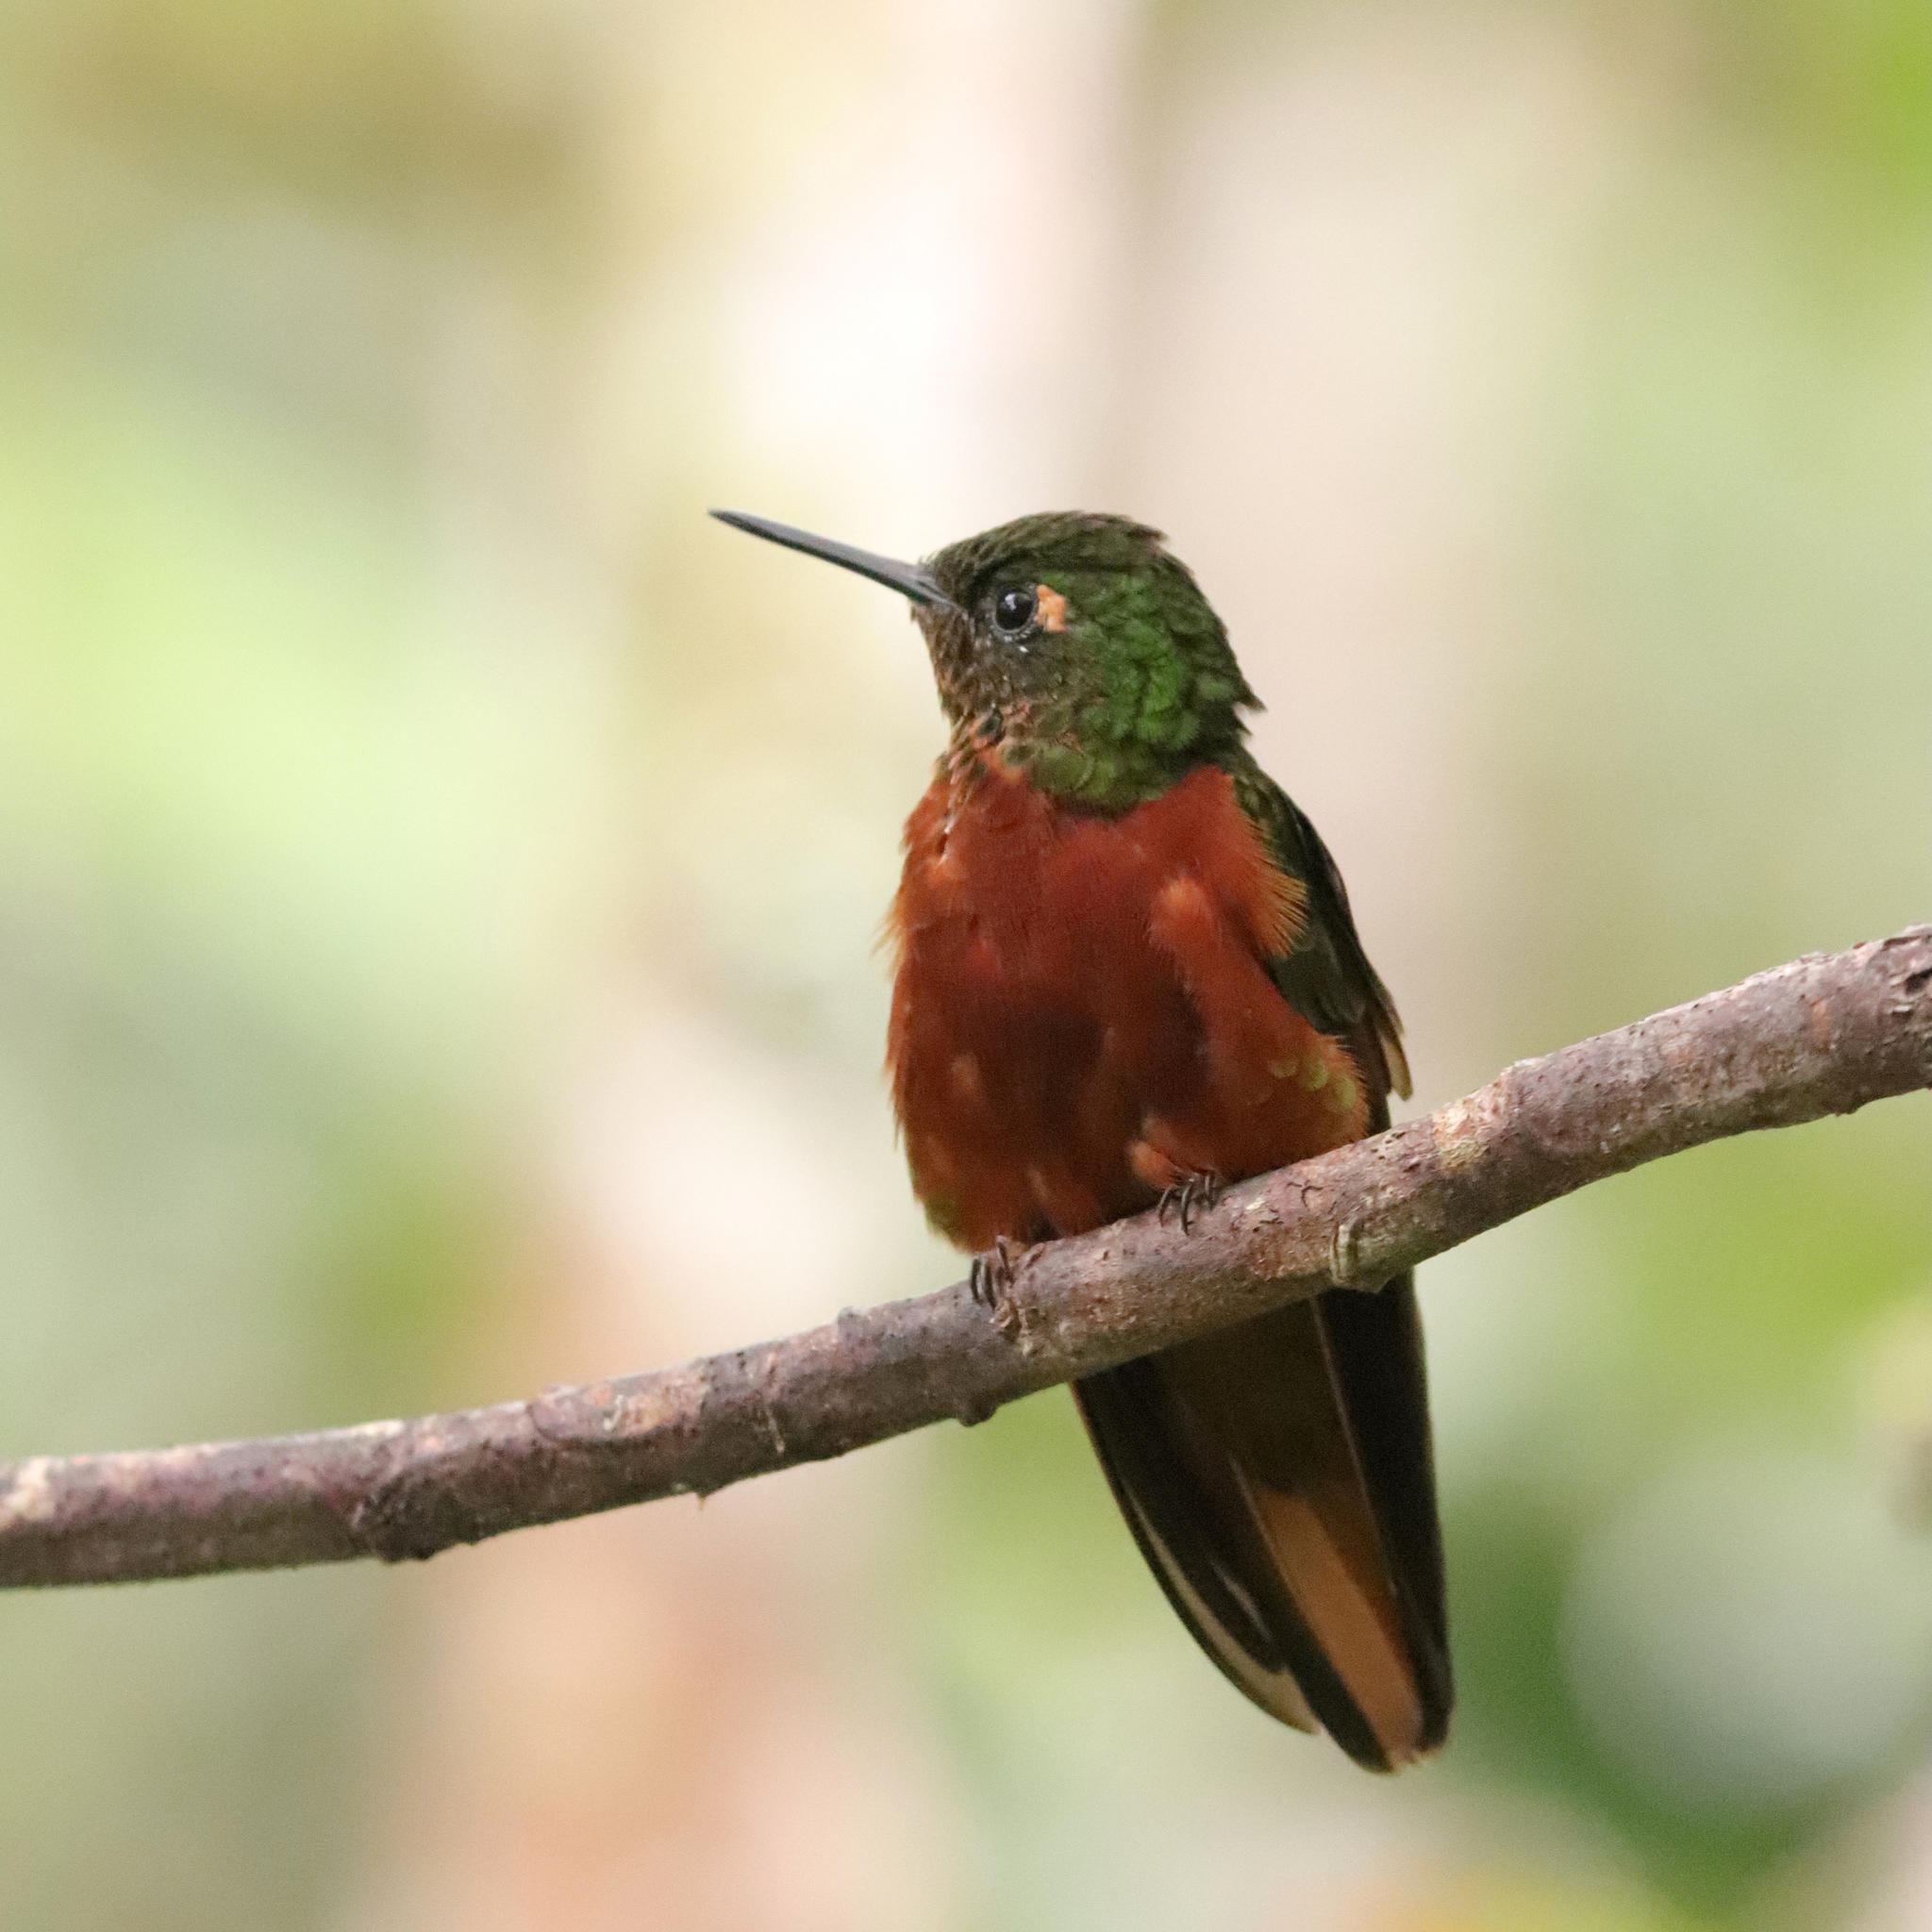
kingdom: Animalia
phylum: Chordata
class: Aves
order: Apodiformes
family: Trochilidae
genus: Boissonneaua
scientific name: Boissonneaua matthewsii
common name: Chestnut-breasted coronet
